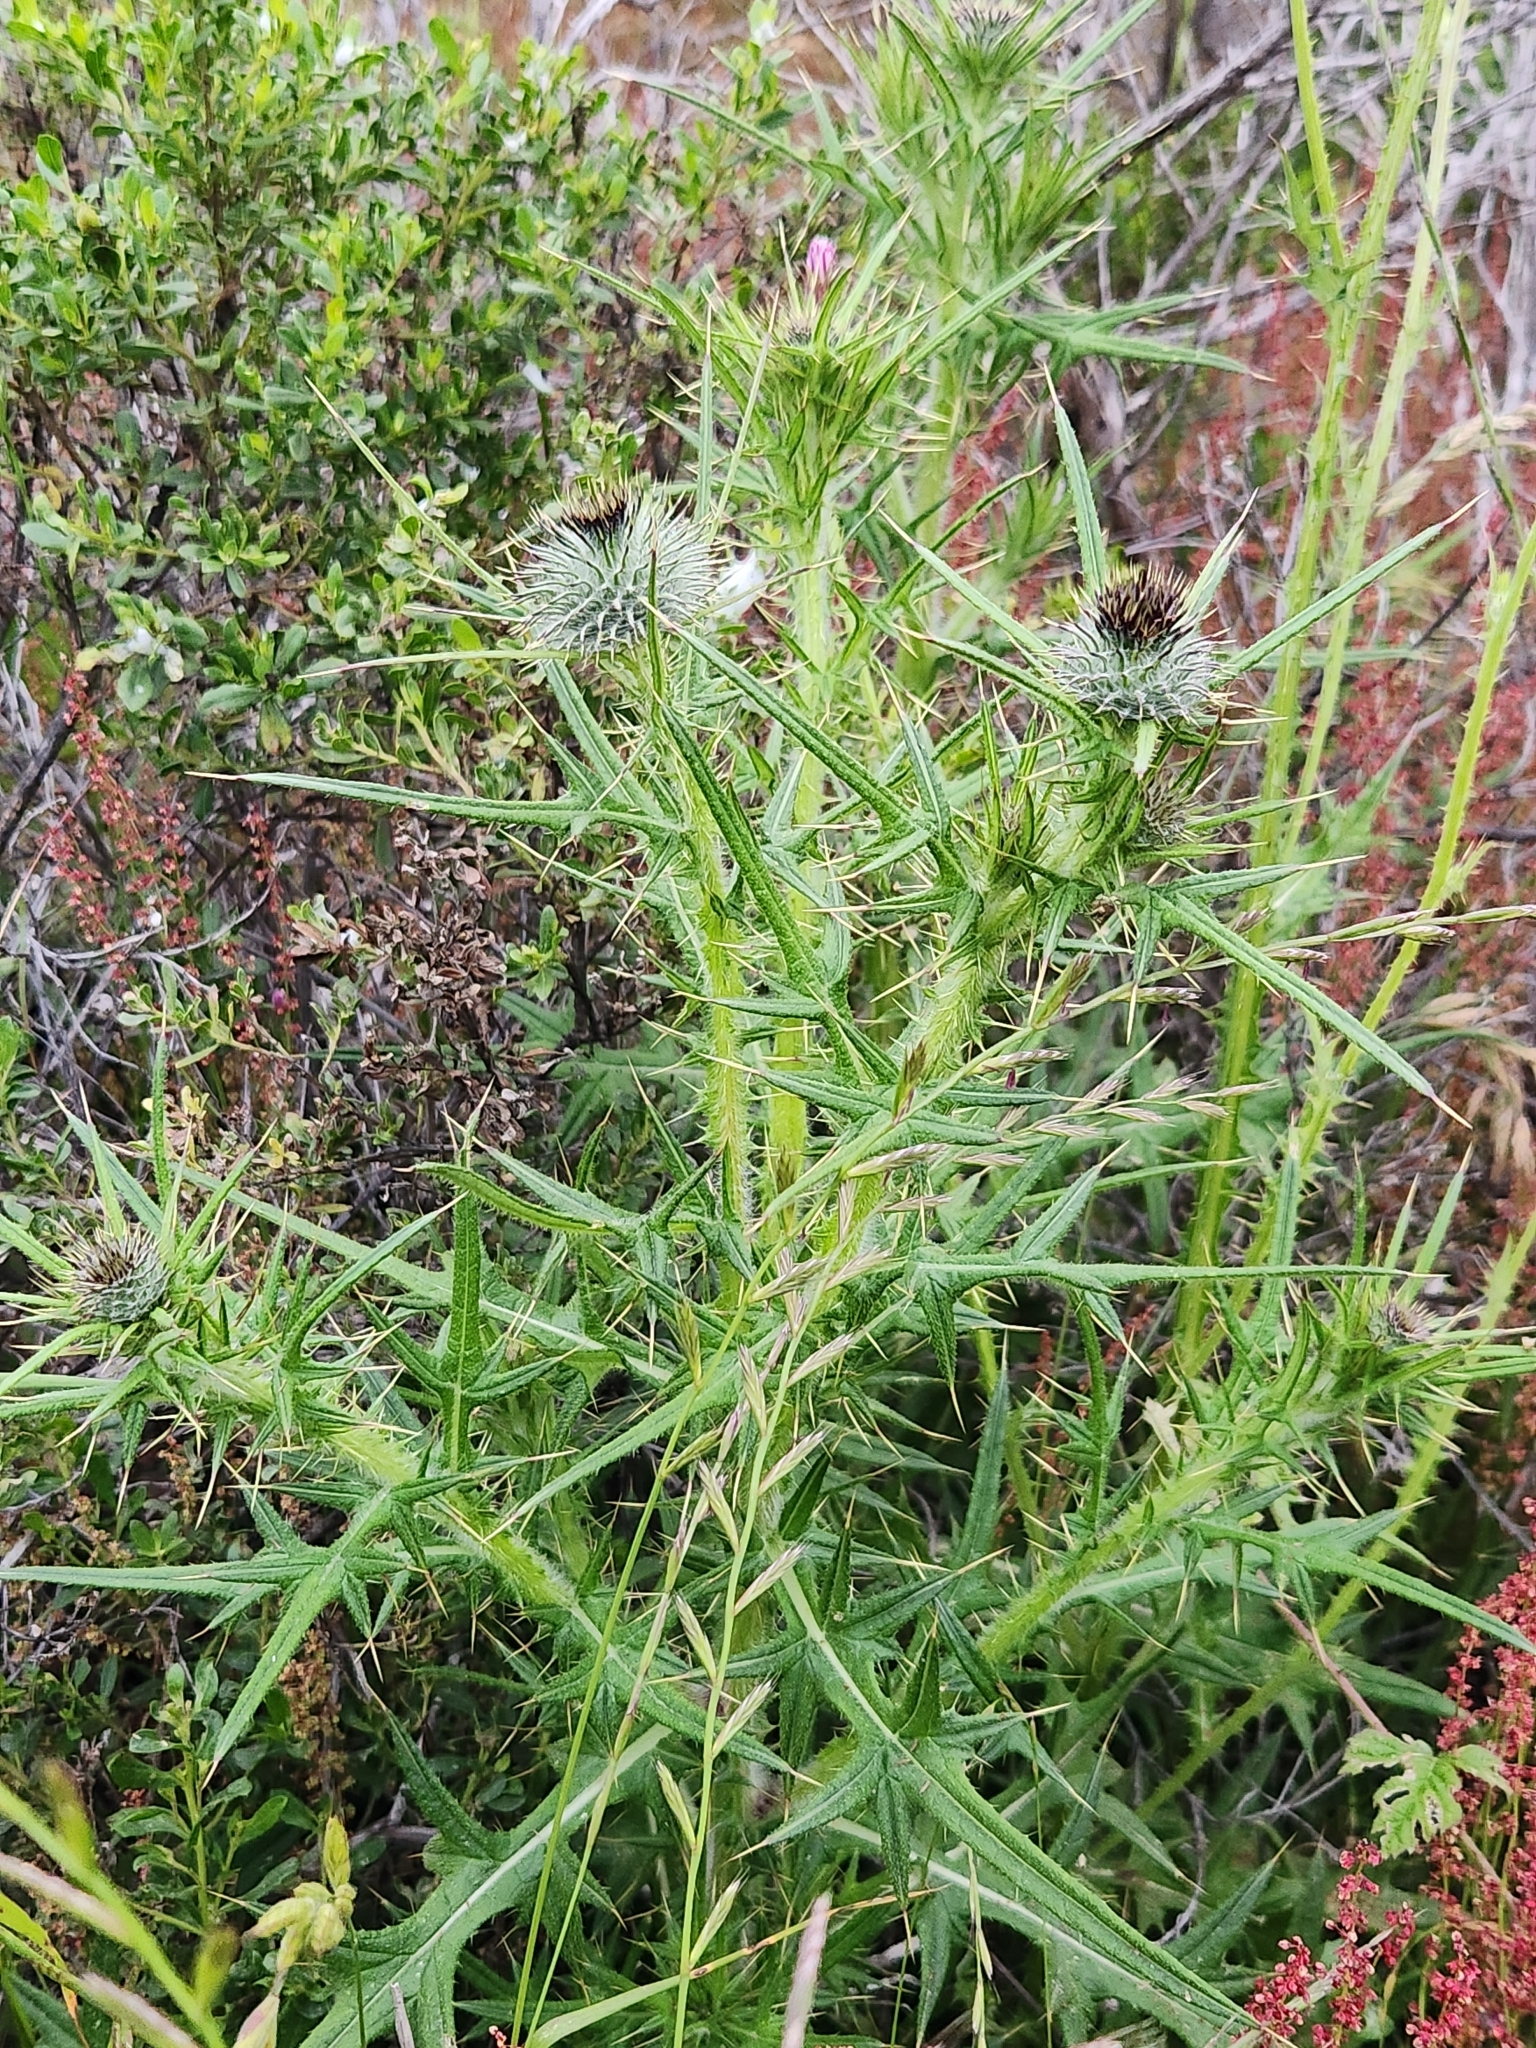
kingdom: Plantae
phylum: Tracheophyta
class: Magnoliopsida
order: Asterales
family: Asteraceae
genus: Cirsium
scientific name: Cirsium vulgare
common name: Bull thistle
